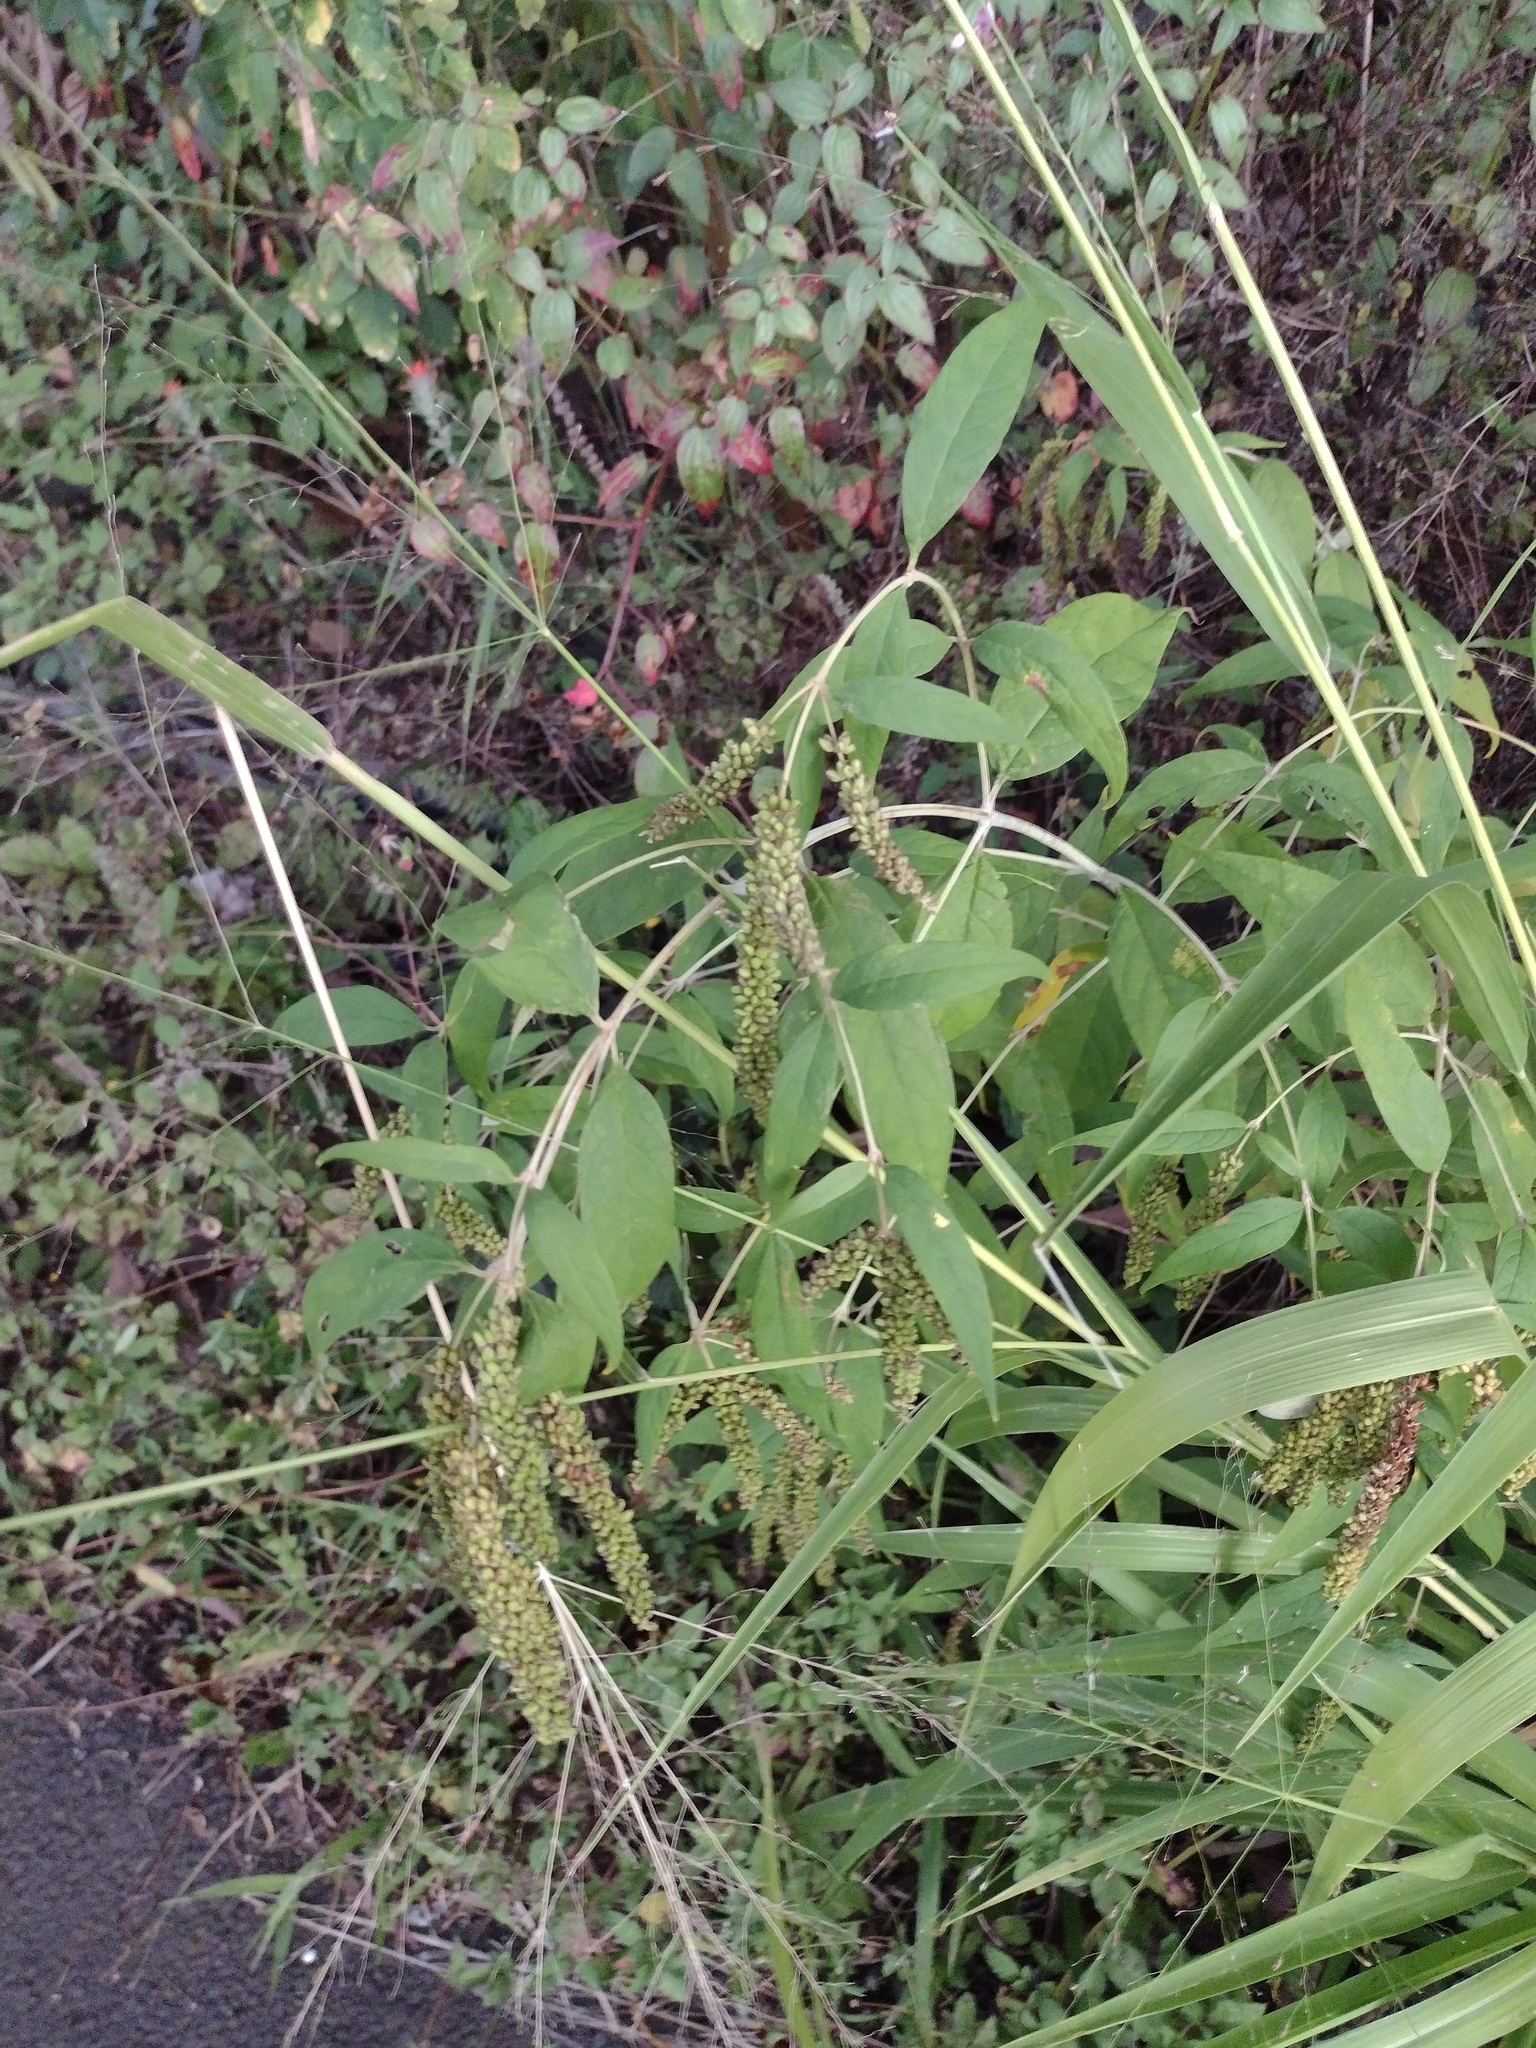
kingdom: Plantae
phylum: Tracheophyta
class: Magnoliopsida
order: Lamiales
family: Scrophulariaceae
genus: Buddleja
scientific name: Buddleja asiatica
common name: Dog tail
